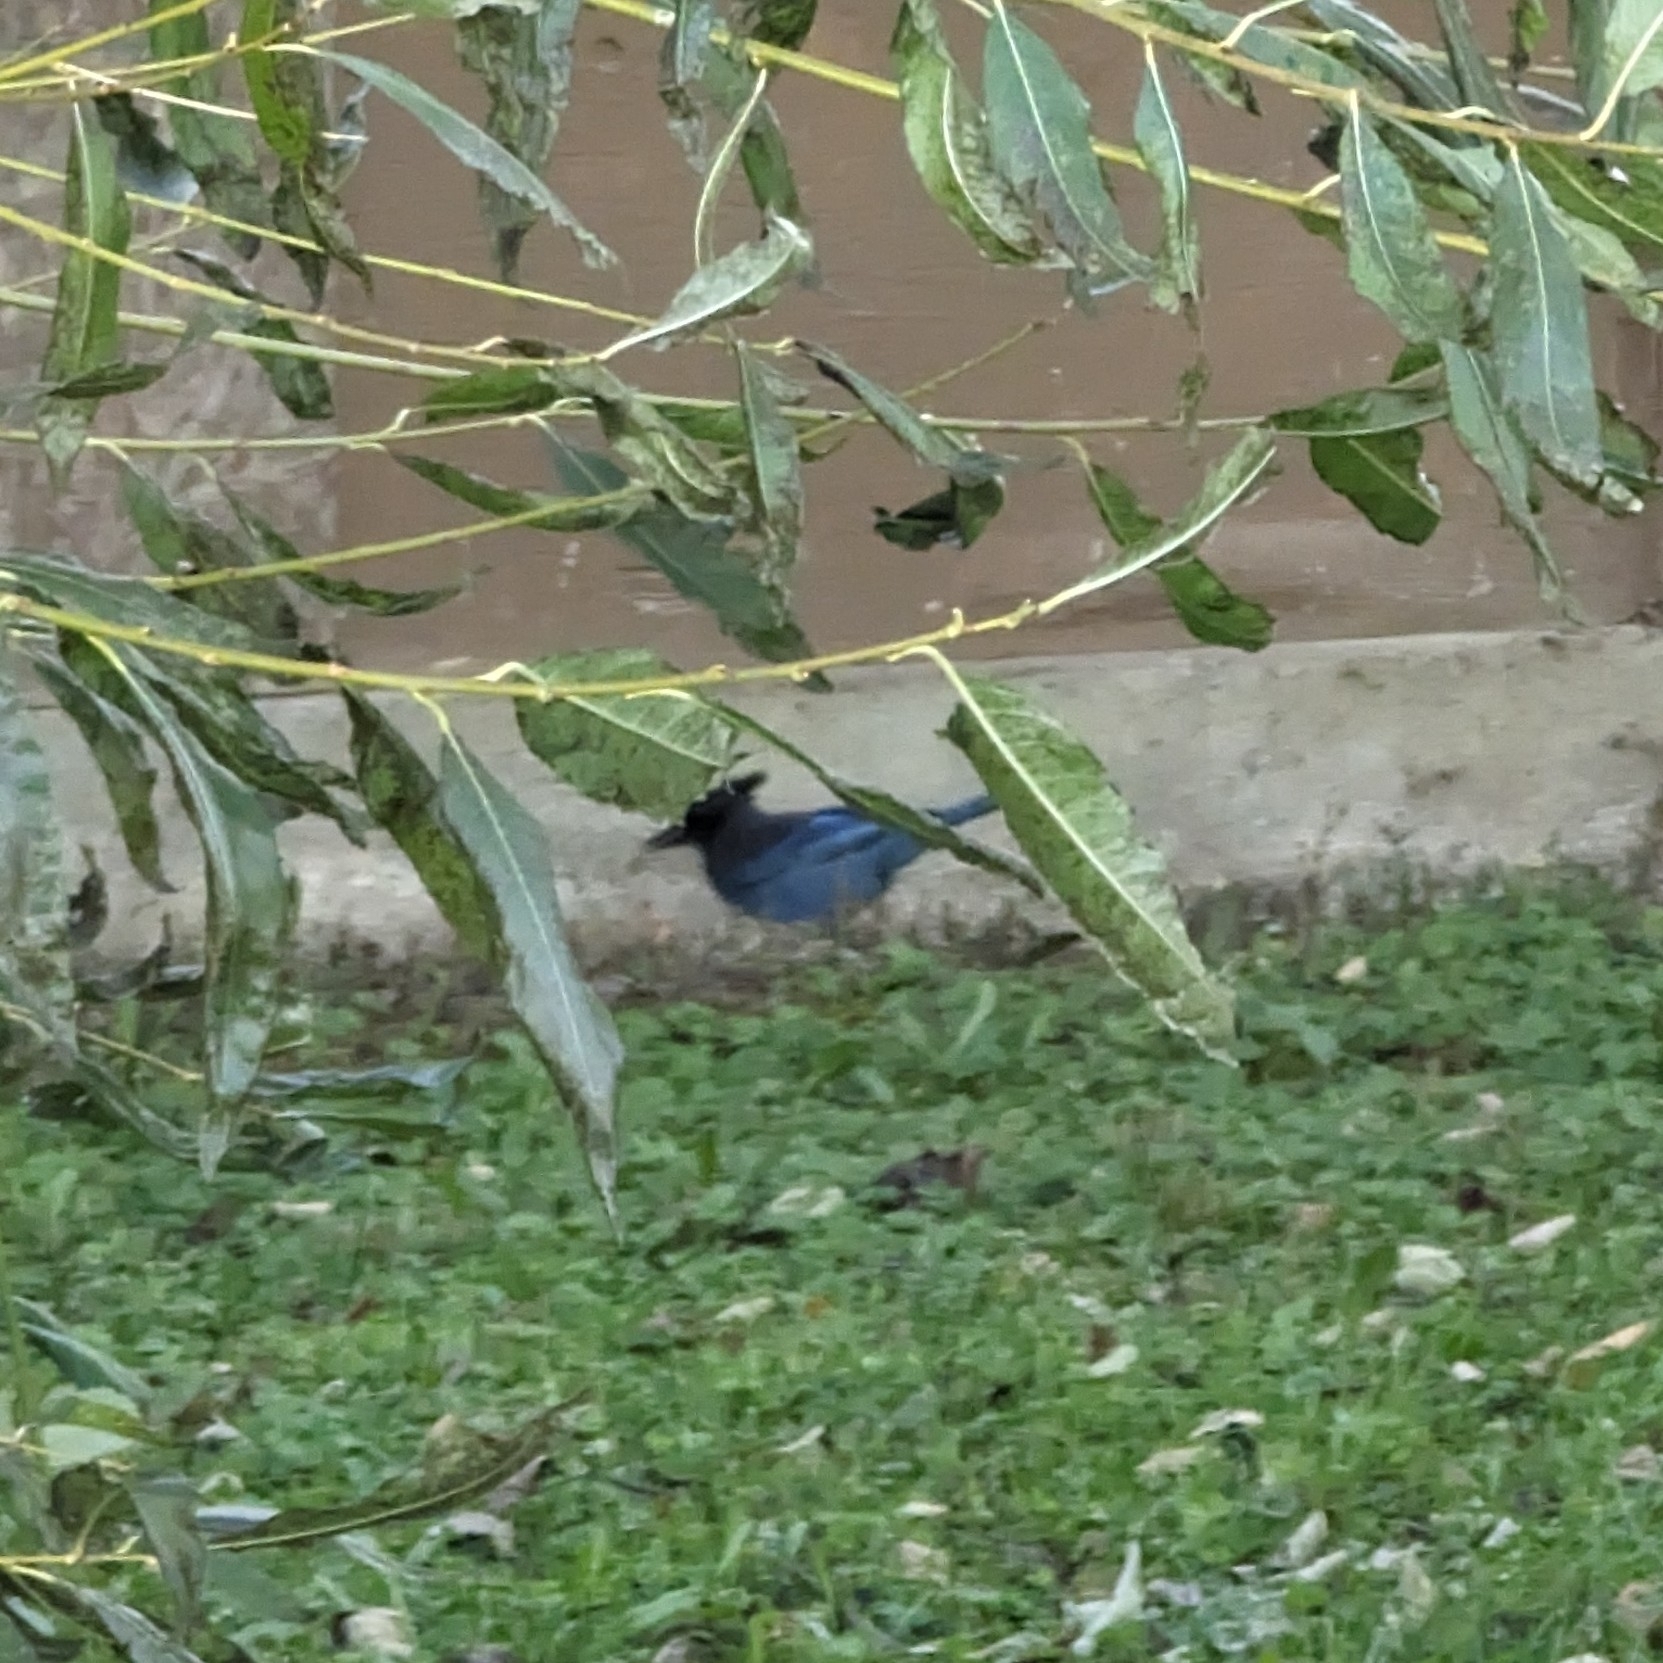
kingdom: Animalia
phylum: Chordata
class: Aves
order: Passeriformes
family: Corvidae
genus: Cyanocitta
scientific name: Cyanocitta stelleri
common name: Steller's jay
